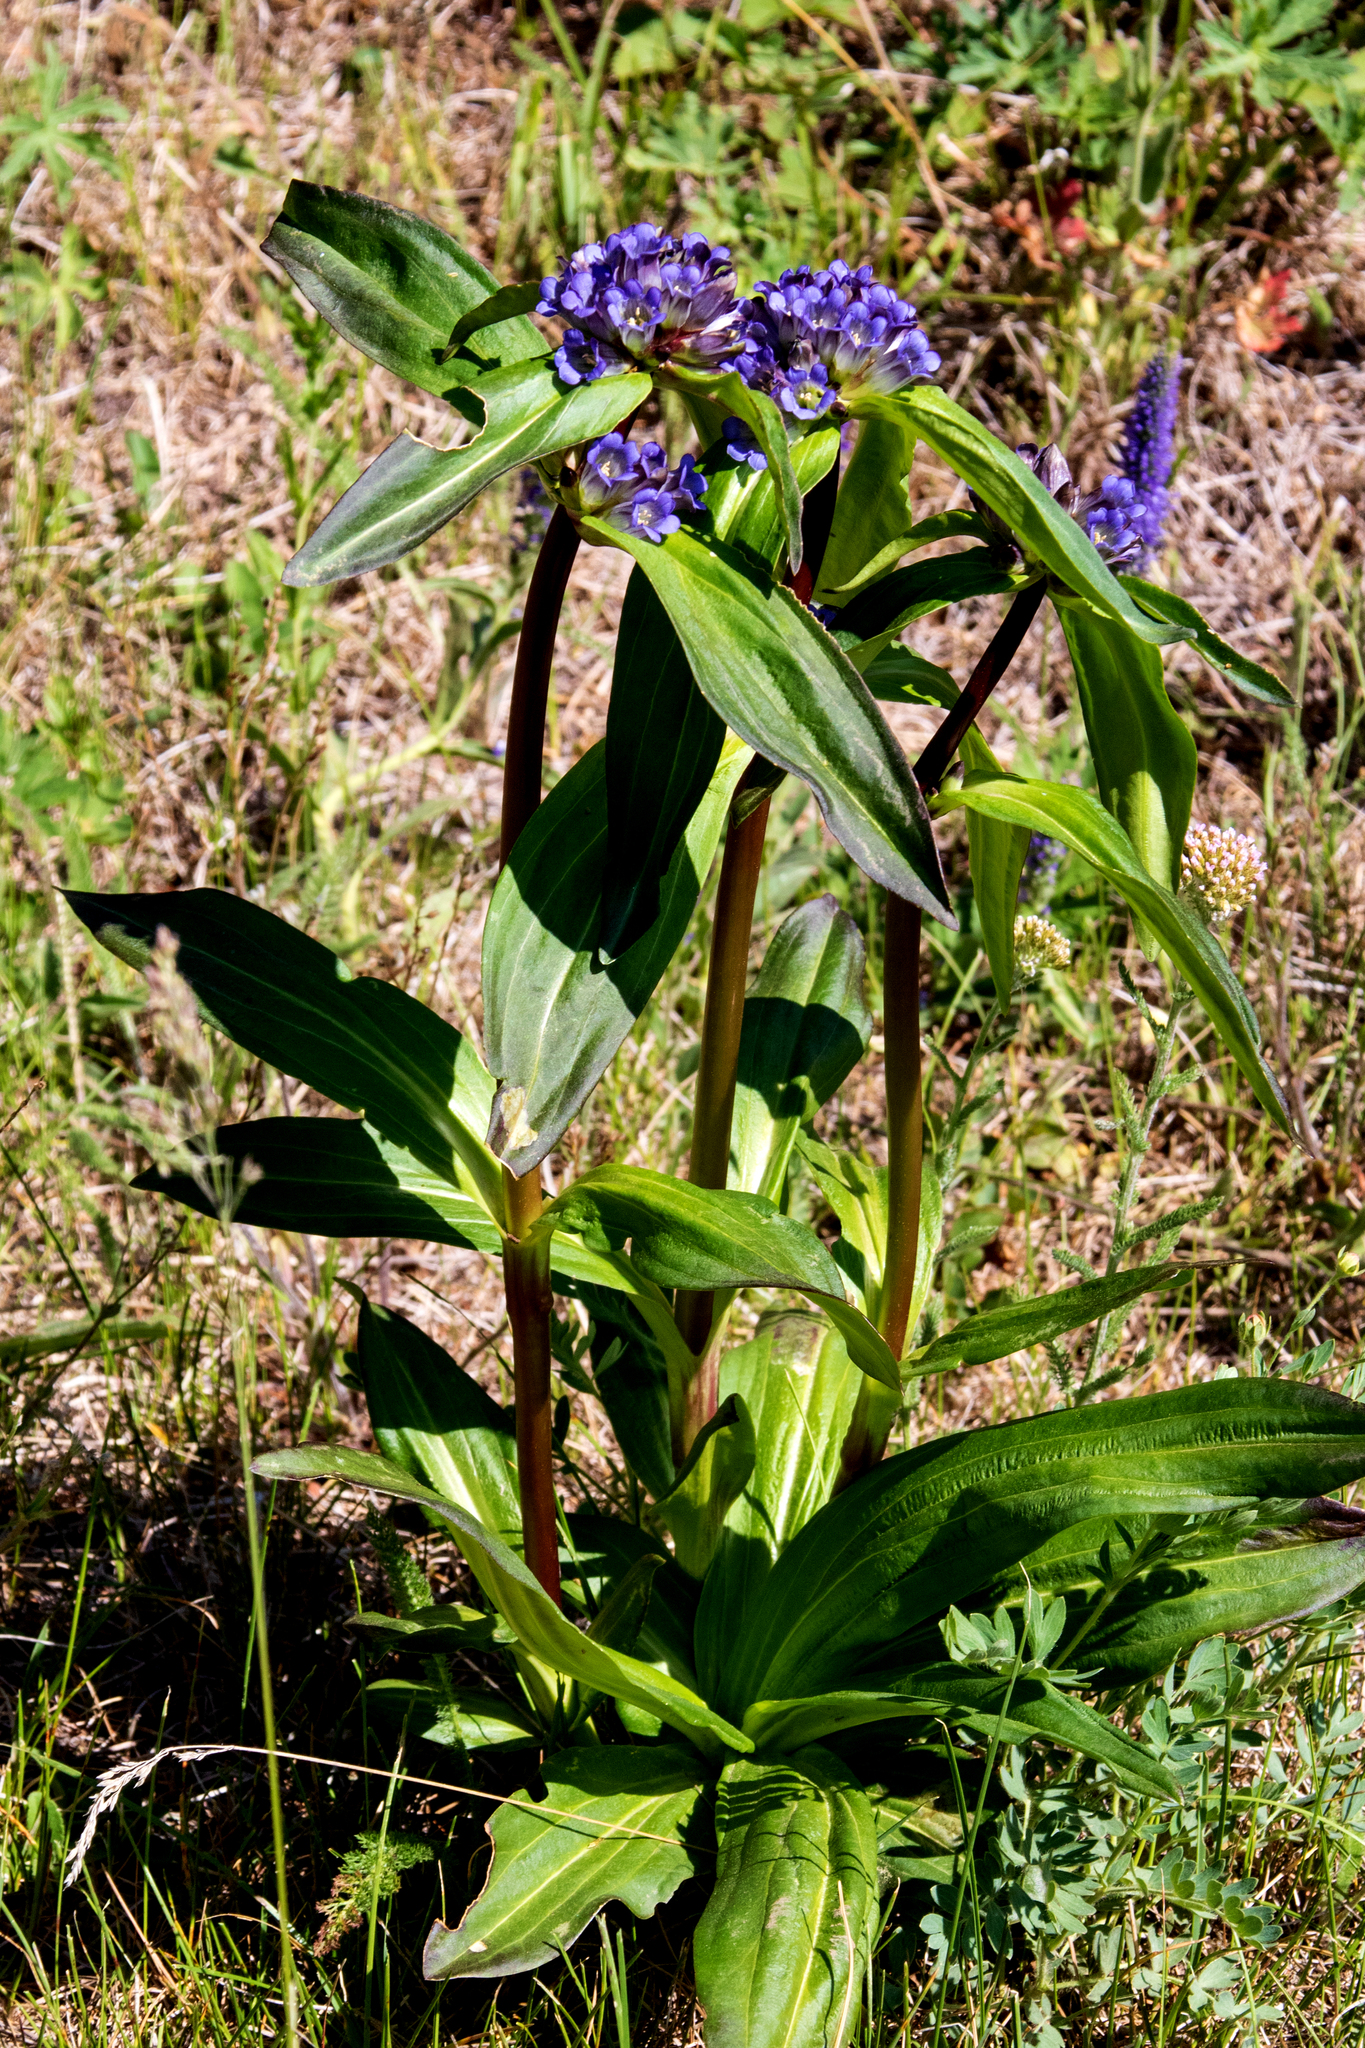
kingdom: Plantae
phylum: Tracheophyta
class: Magnoliopsida
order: Gentianales
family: Gentianaceae
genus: Gentiana
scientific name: Gentiana macrophylla
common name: Large-leaf gentian
